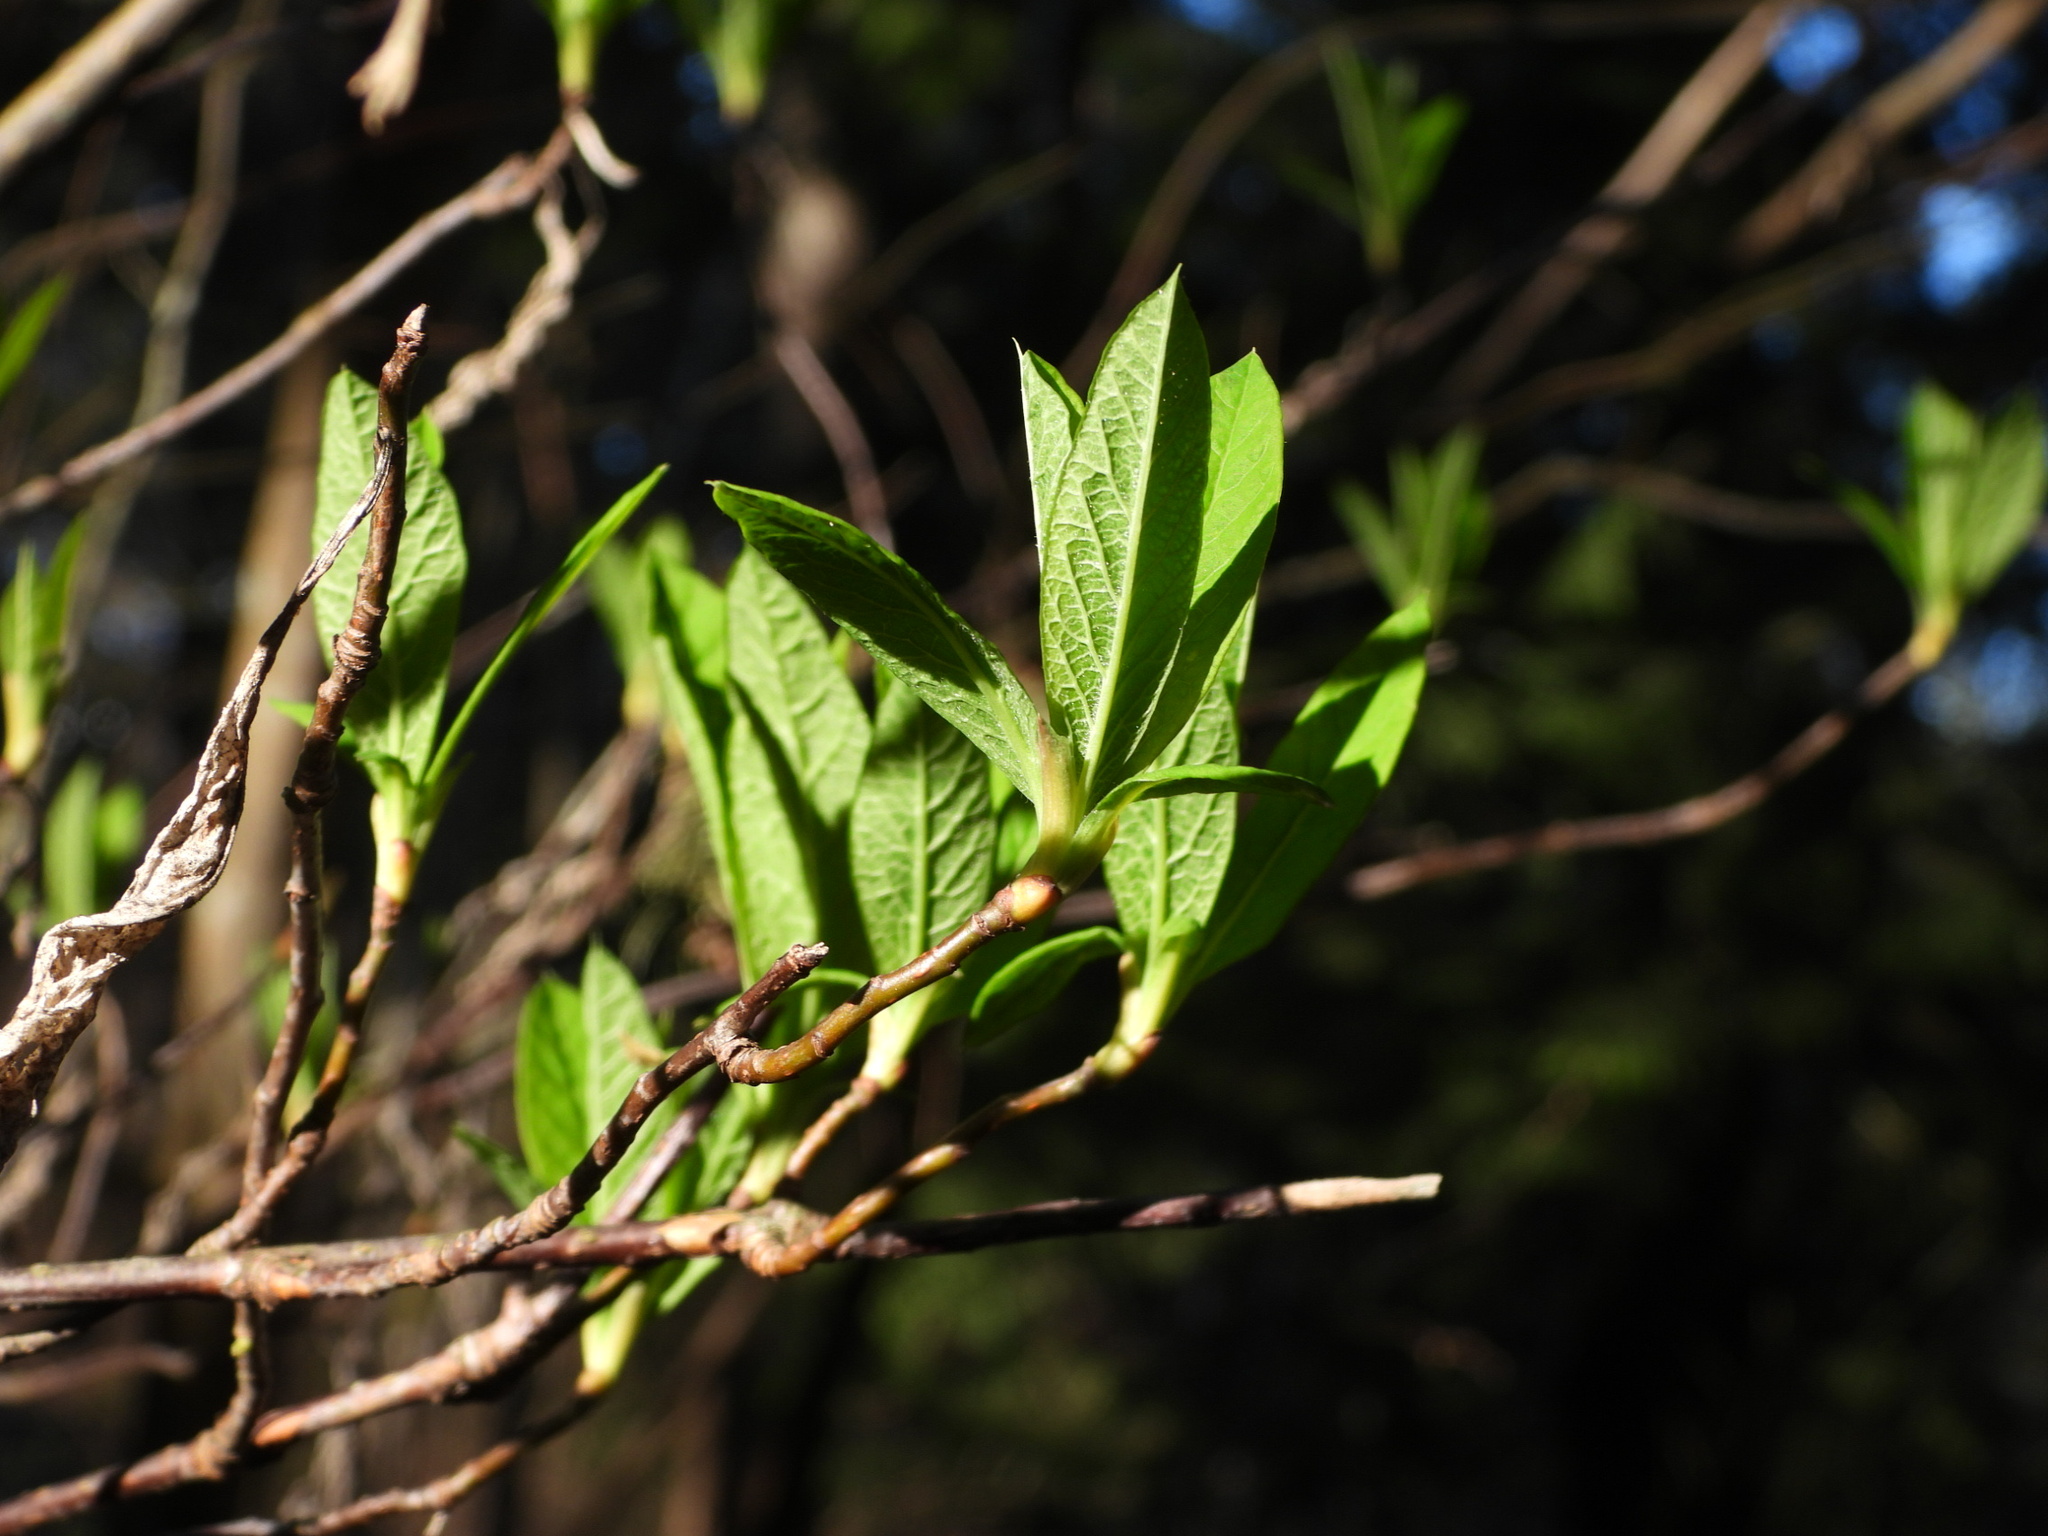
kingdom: Plantae
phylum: Tracheophyta
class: Magnoliopsida
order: Rosales
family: Rosaceae
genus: Oemleria
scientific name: Oemleria cerasiformis
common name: Osoberry
